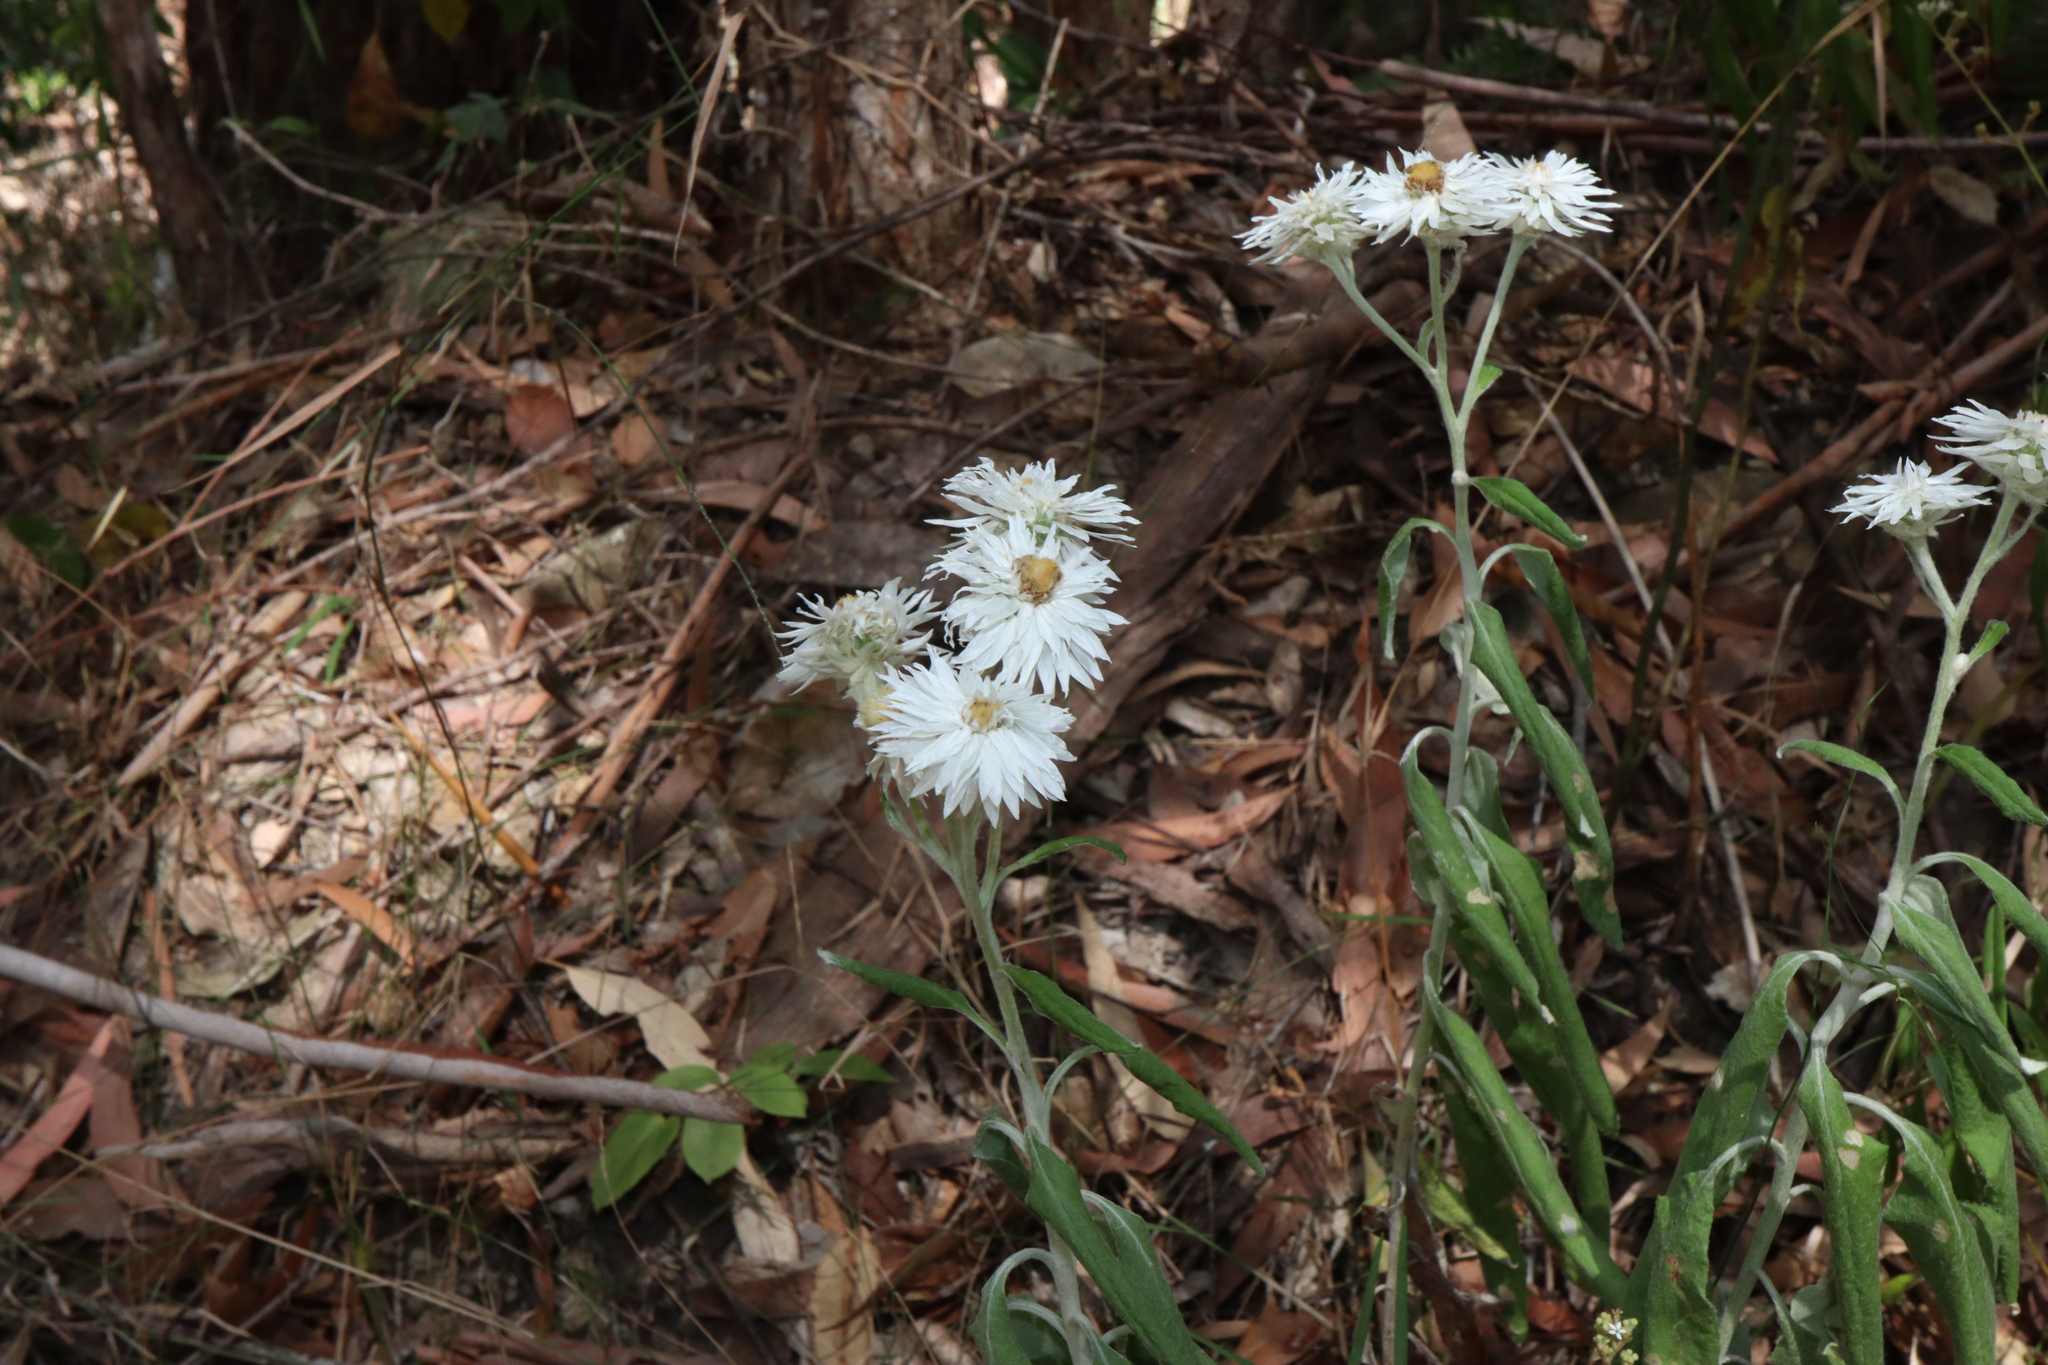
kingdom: Plantae
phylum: Tracheophyta
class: Magnoliopsida
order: Asterales
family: Asteraceae
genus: Leucozoma
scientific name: Leucozoma elatum
